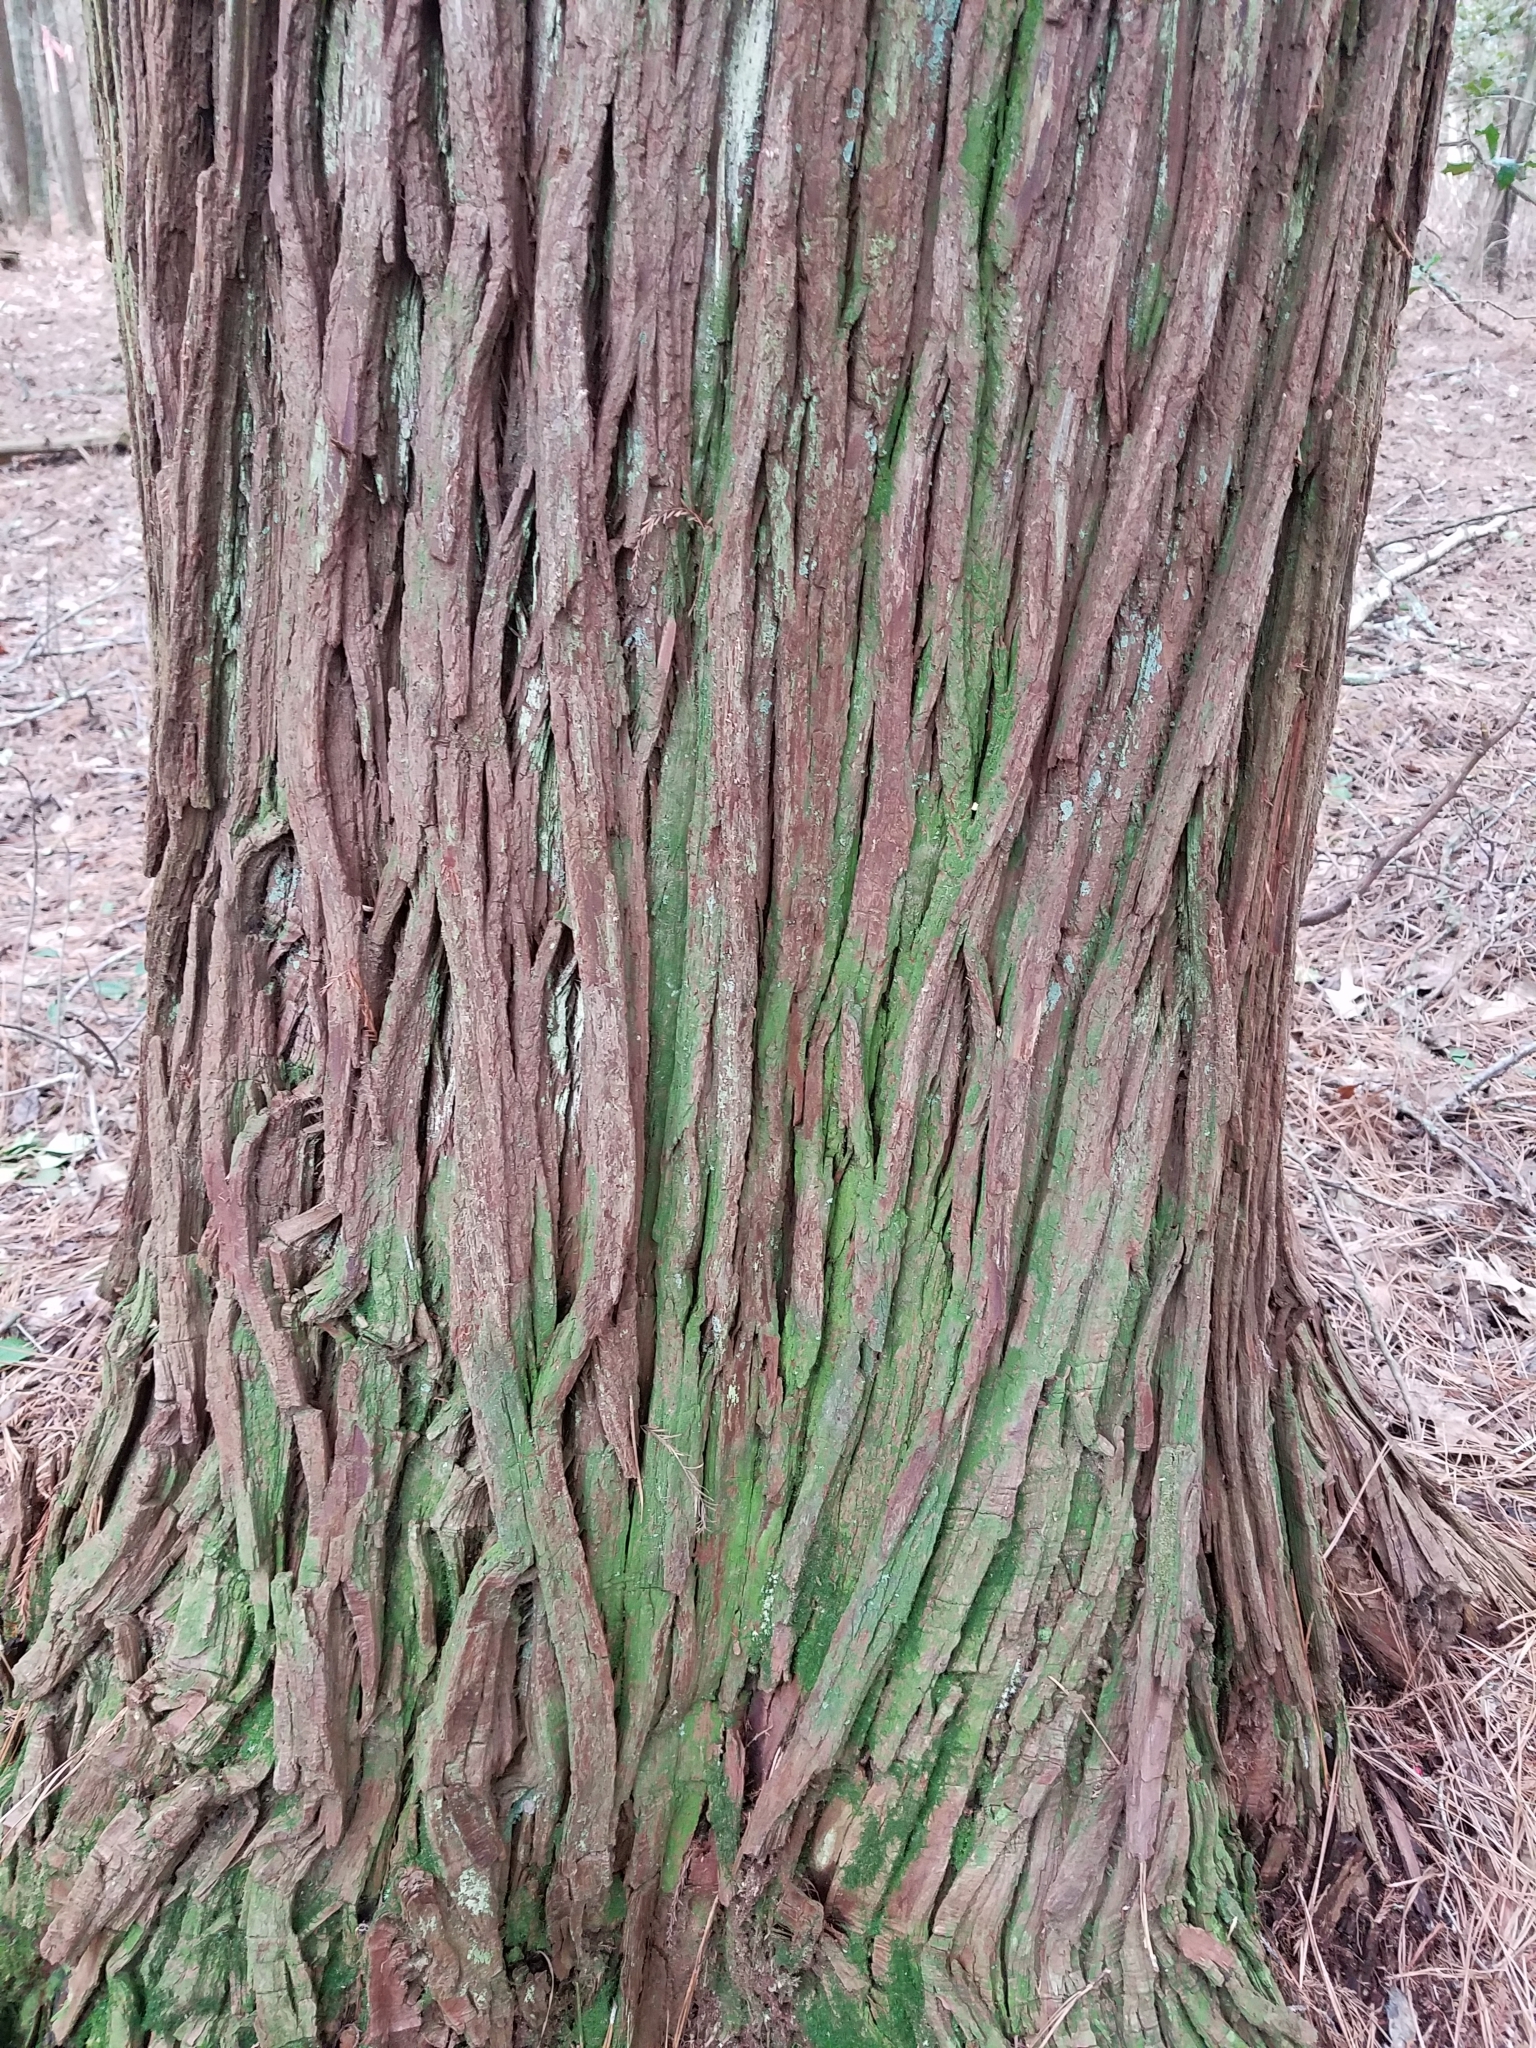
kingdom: Plantae
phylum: Tracheophyta
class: Pinopsida
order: Pinales
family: Cupressaceae
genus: Chamaecyparis
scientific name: Chamaecyparis thyoides
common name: Atlantic white cedar
